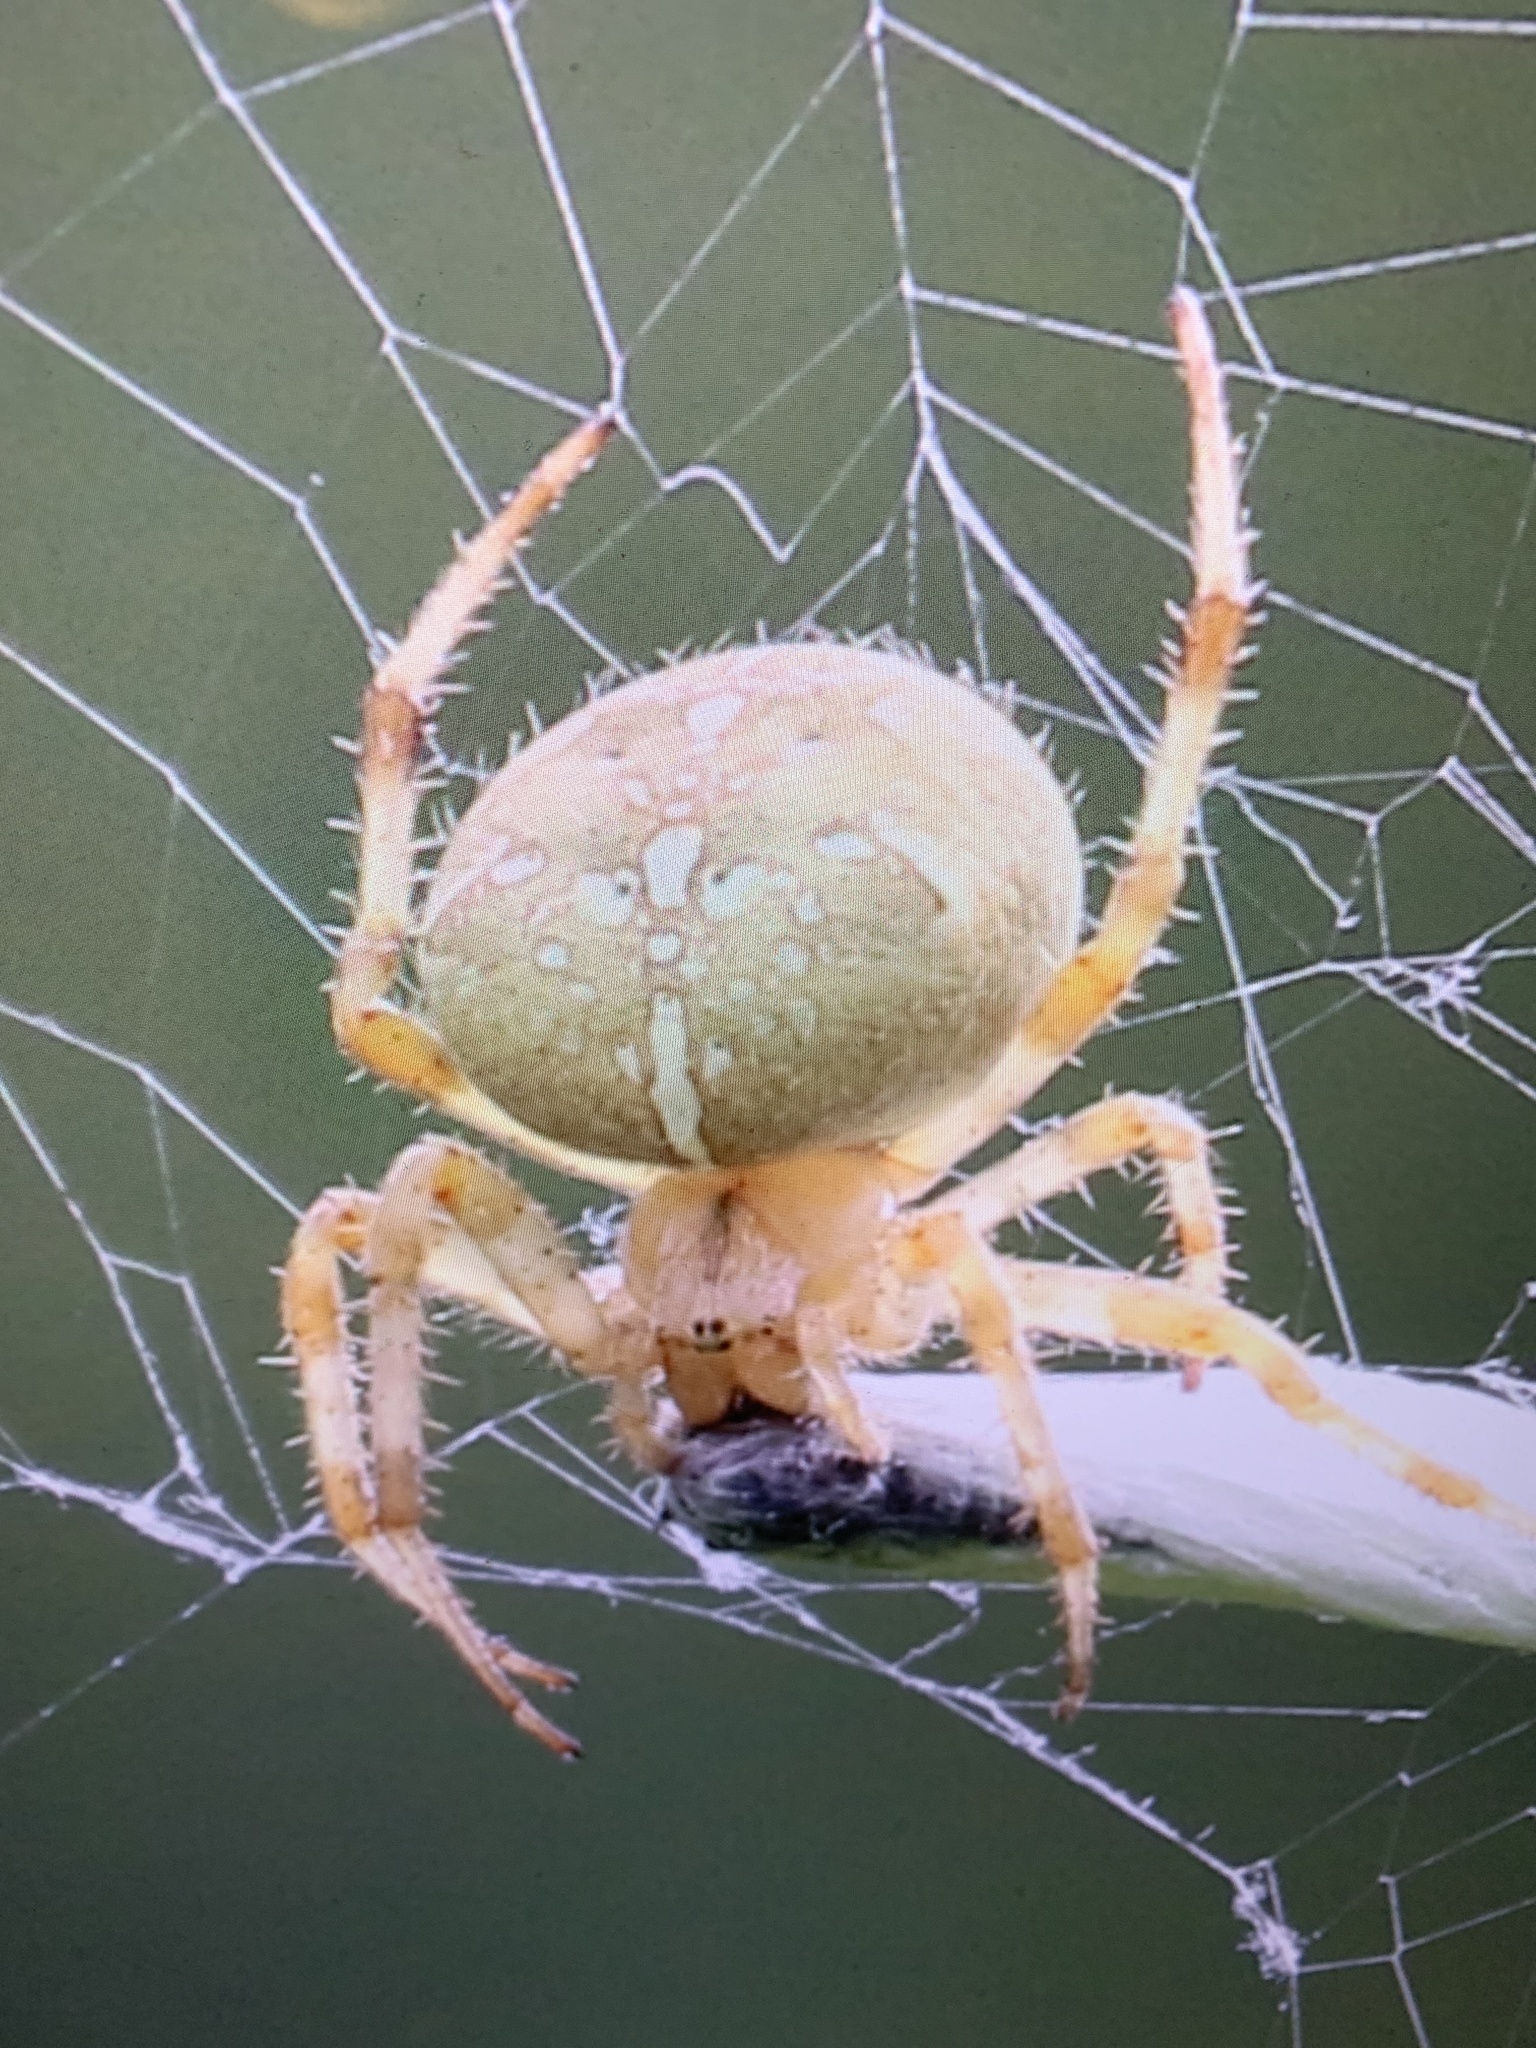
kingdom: Animalia
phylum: Arthropoda
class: Arachnida
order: Araneae
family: Araneidae
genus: Araneus
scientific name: Araneus diadematus
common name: Cross orbweaver
